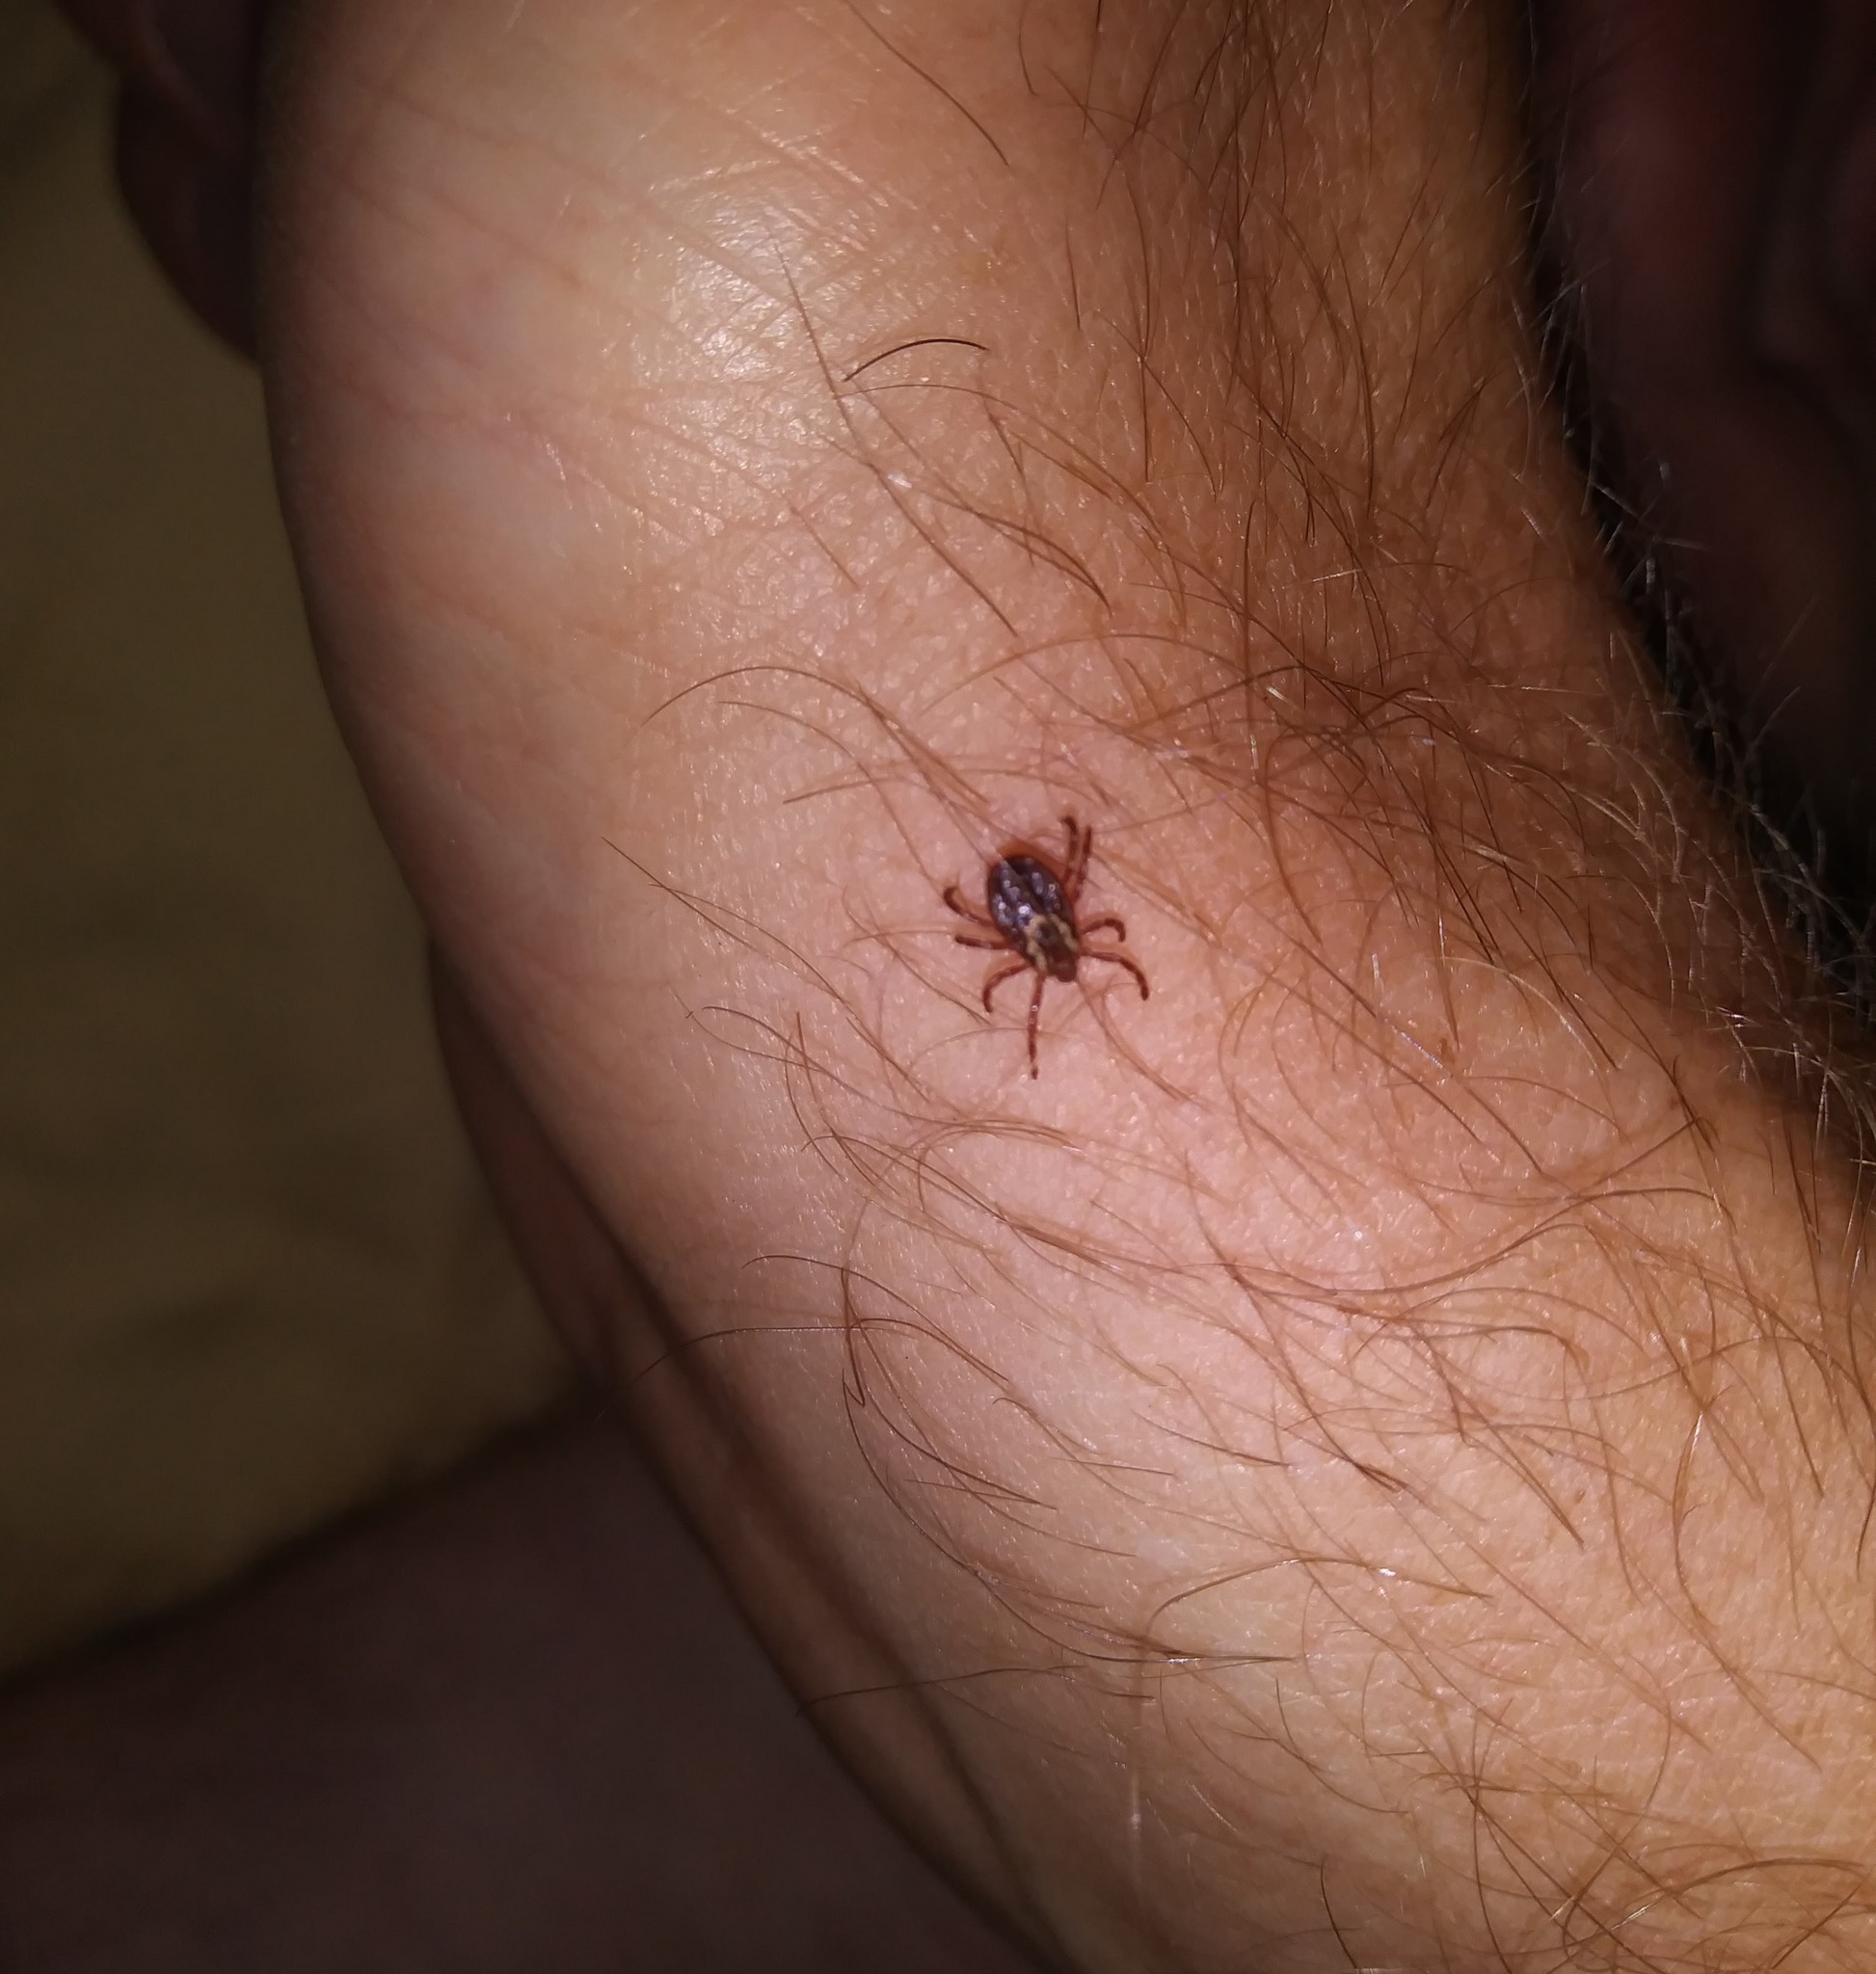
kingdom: Animalia
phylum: Arthropoda
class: Arachnida
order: Ixodida
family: Ixodidae
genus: Dermacentor
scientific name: Dermacentor variabilis
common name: American dog tick
